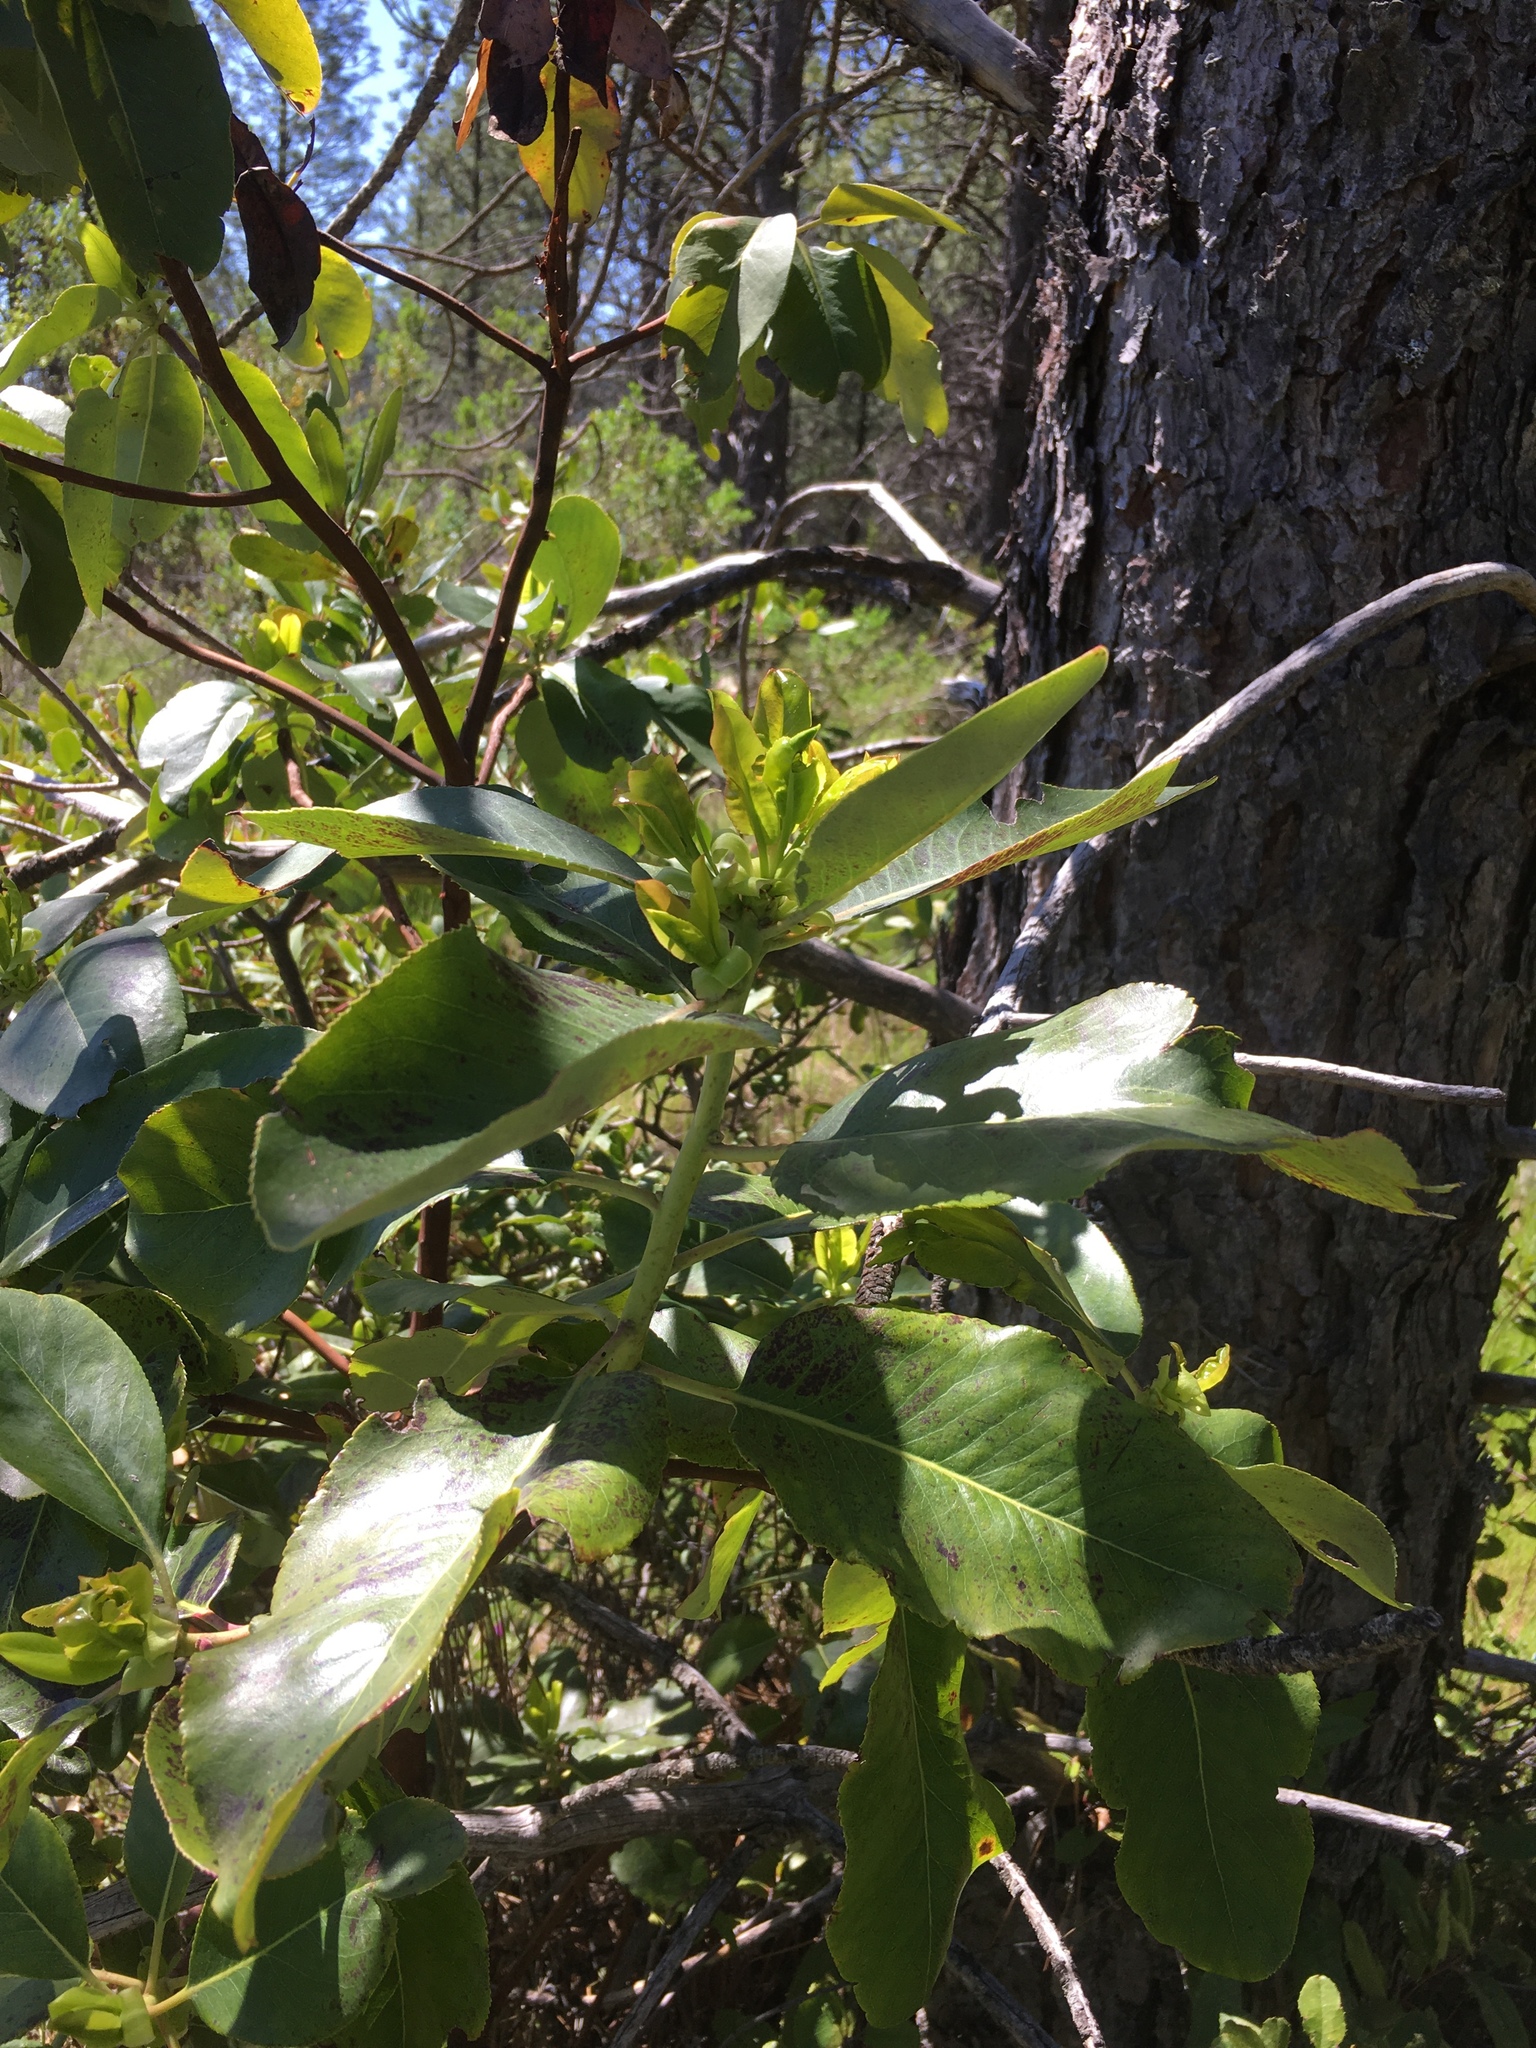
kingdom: Plantae
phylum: Tracheophyta
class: Magnoliopsida
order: Ericales
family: Ericaceae
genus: Arbutus
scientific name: Arbutus menziesii
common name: Pacific madrone
